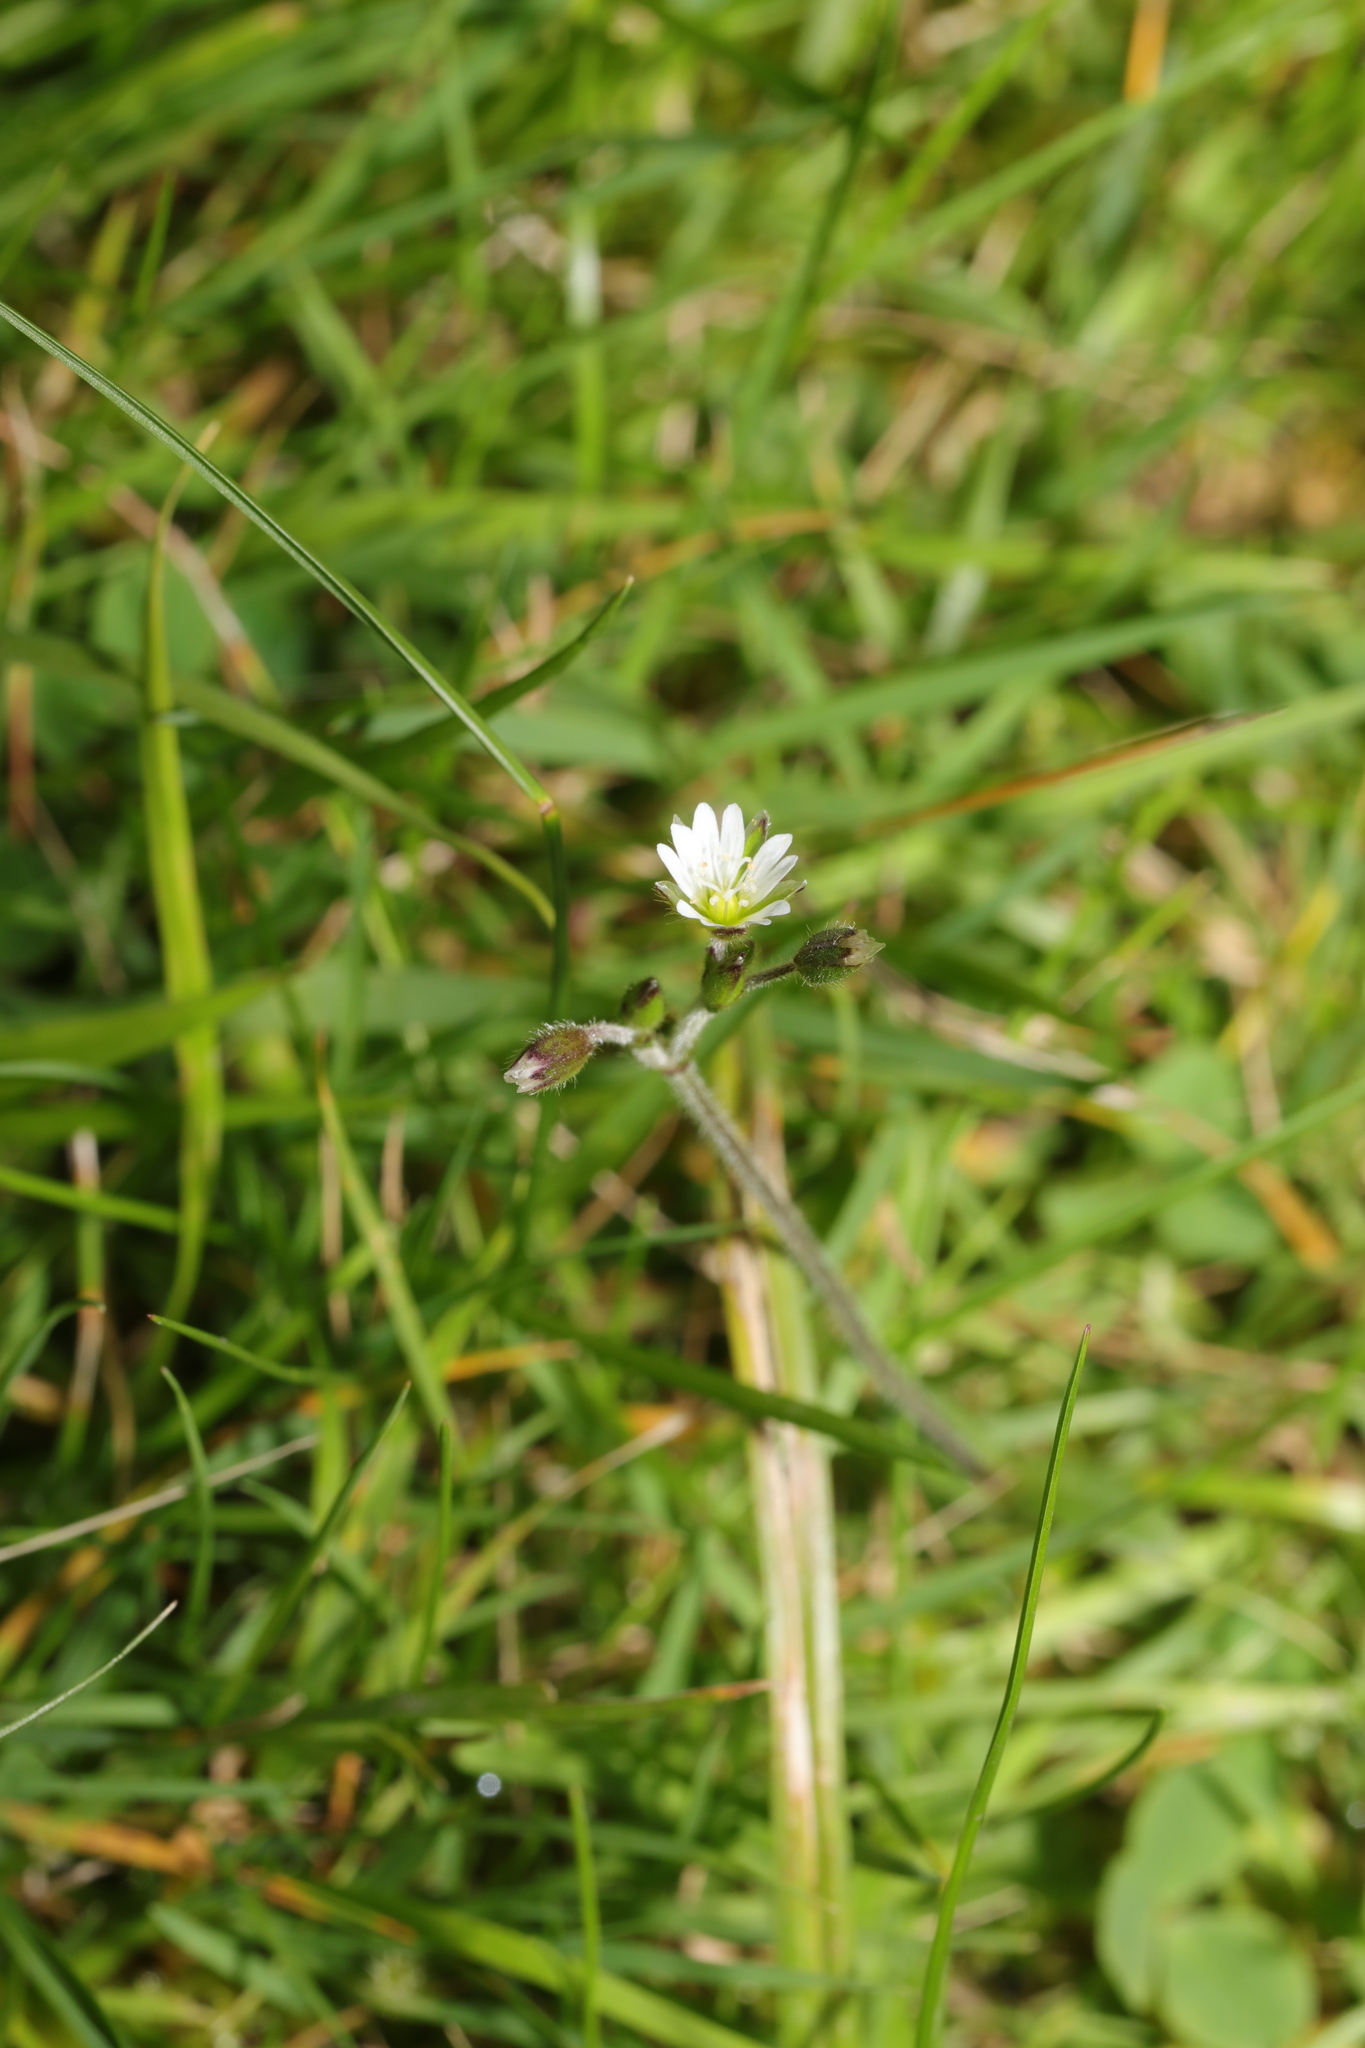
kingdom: Plantae
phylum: Tracheophyta
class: Magnoliopsida
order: Caryophyllales
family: Caryophyllaceae
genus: Cerastium
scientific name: Cerastium fontanum
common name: Common mouse-ear
